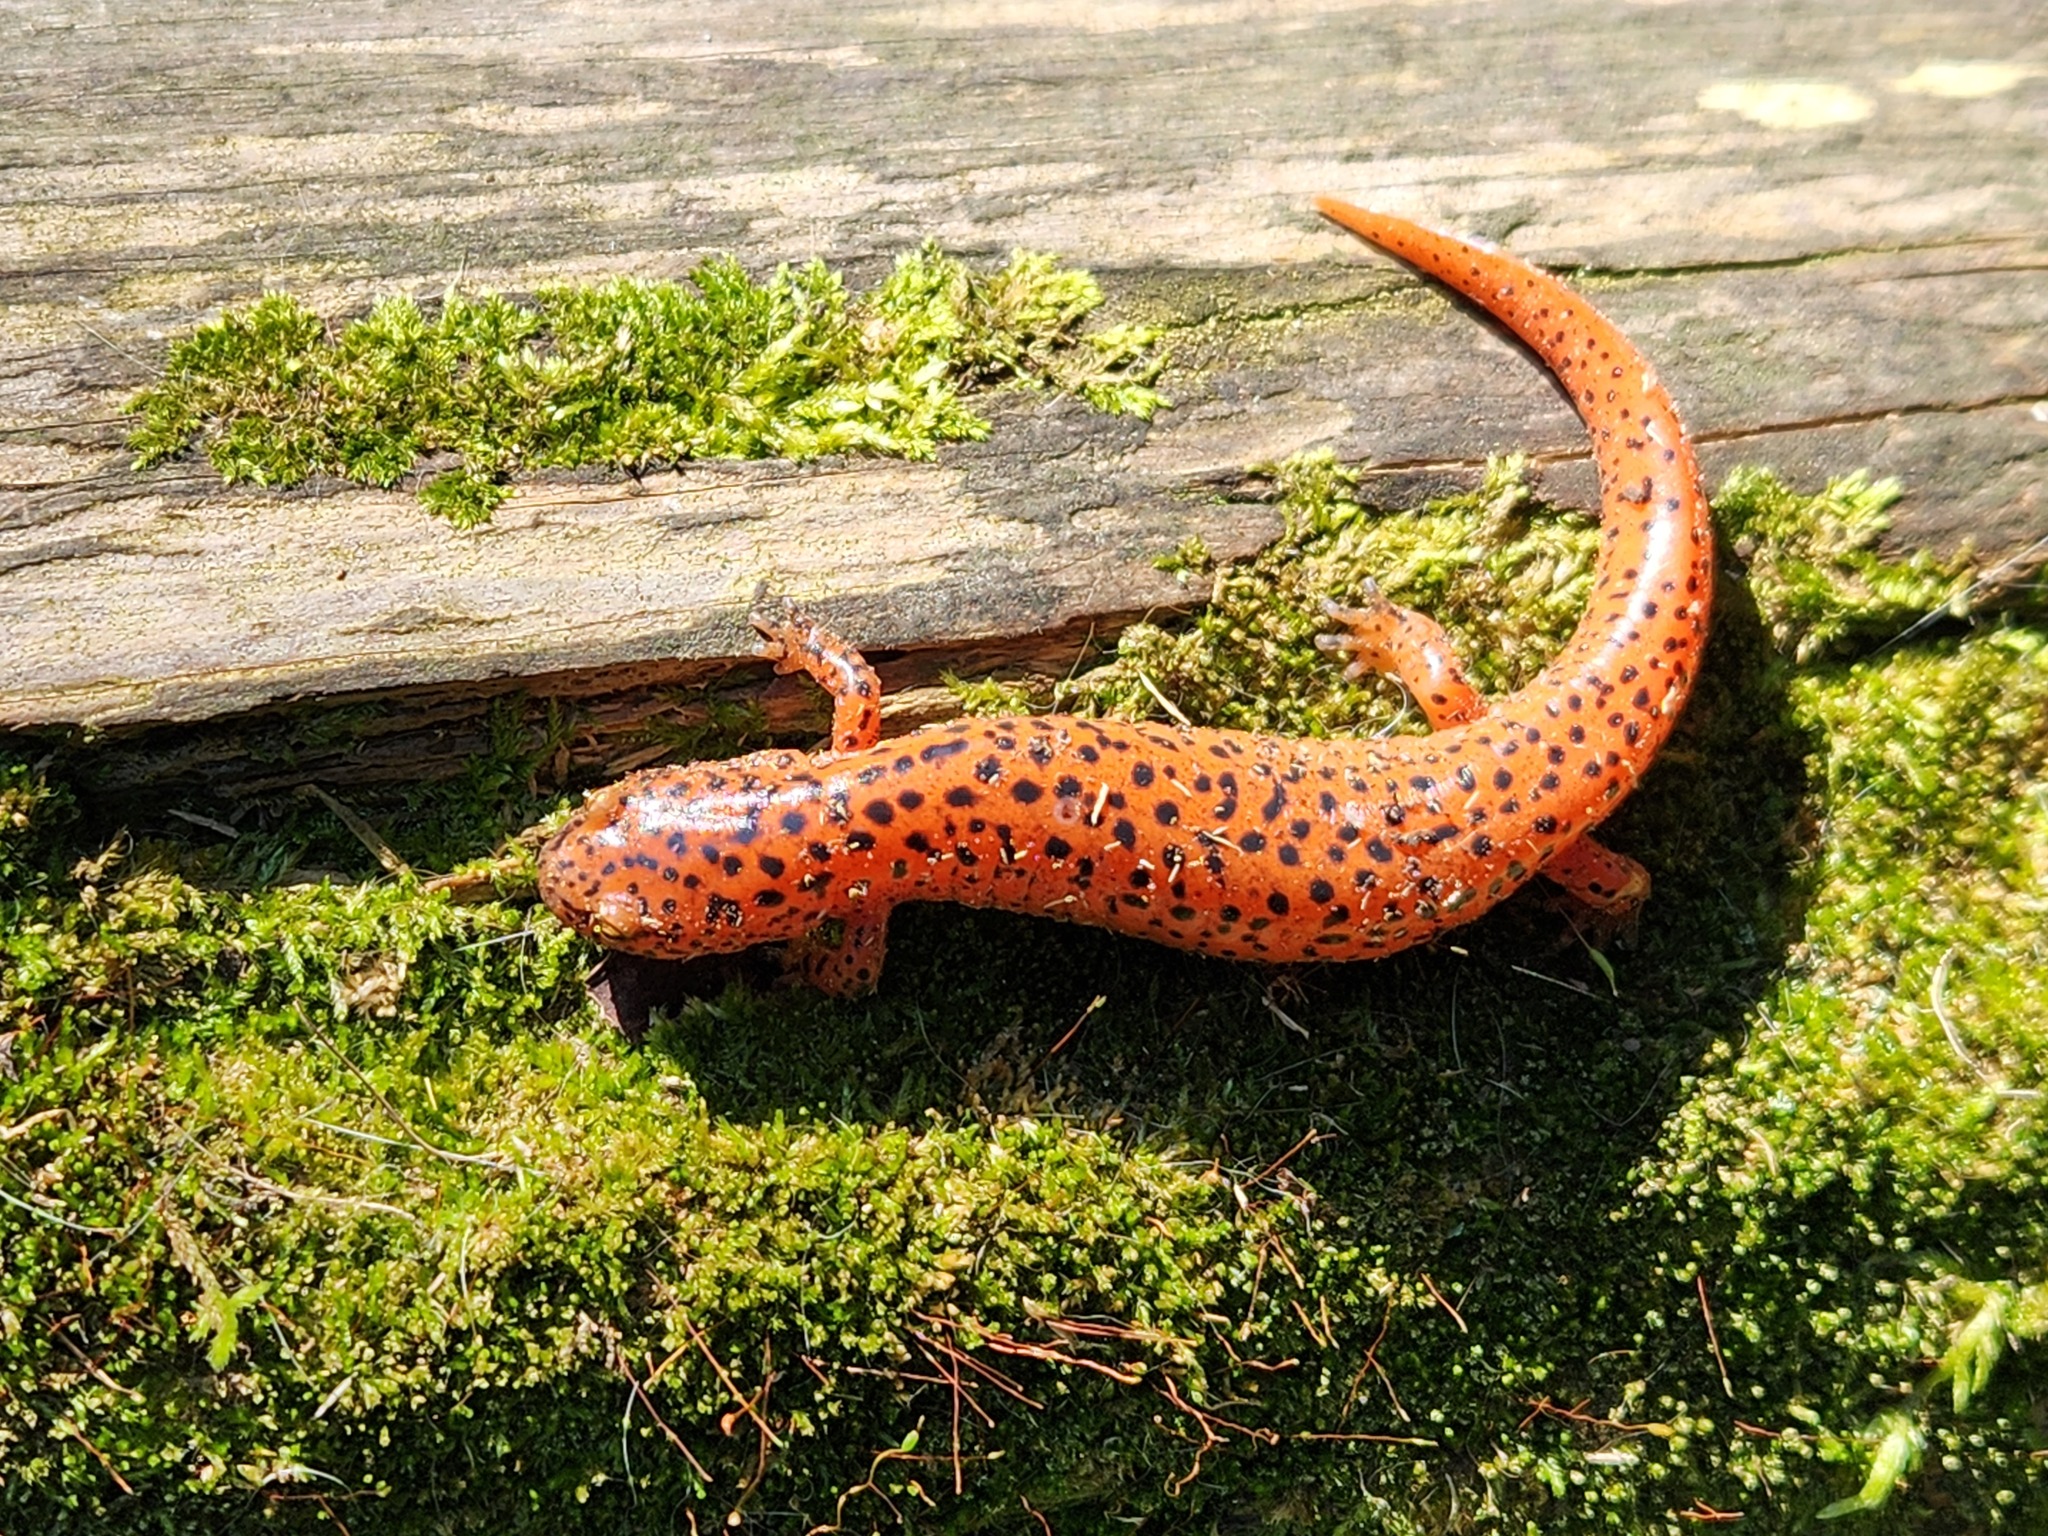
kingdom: Animalia
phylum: Chordata
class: Amphibia
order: Caudata
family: Plethodontidae
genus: Pseudotriton
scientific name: Pseudotriton ruber
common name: Red salamander
